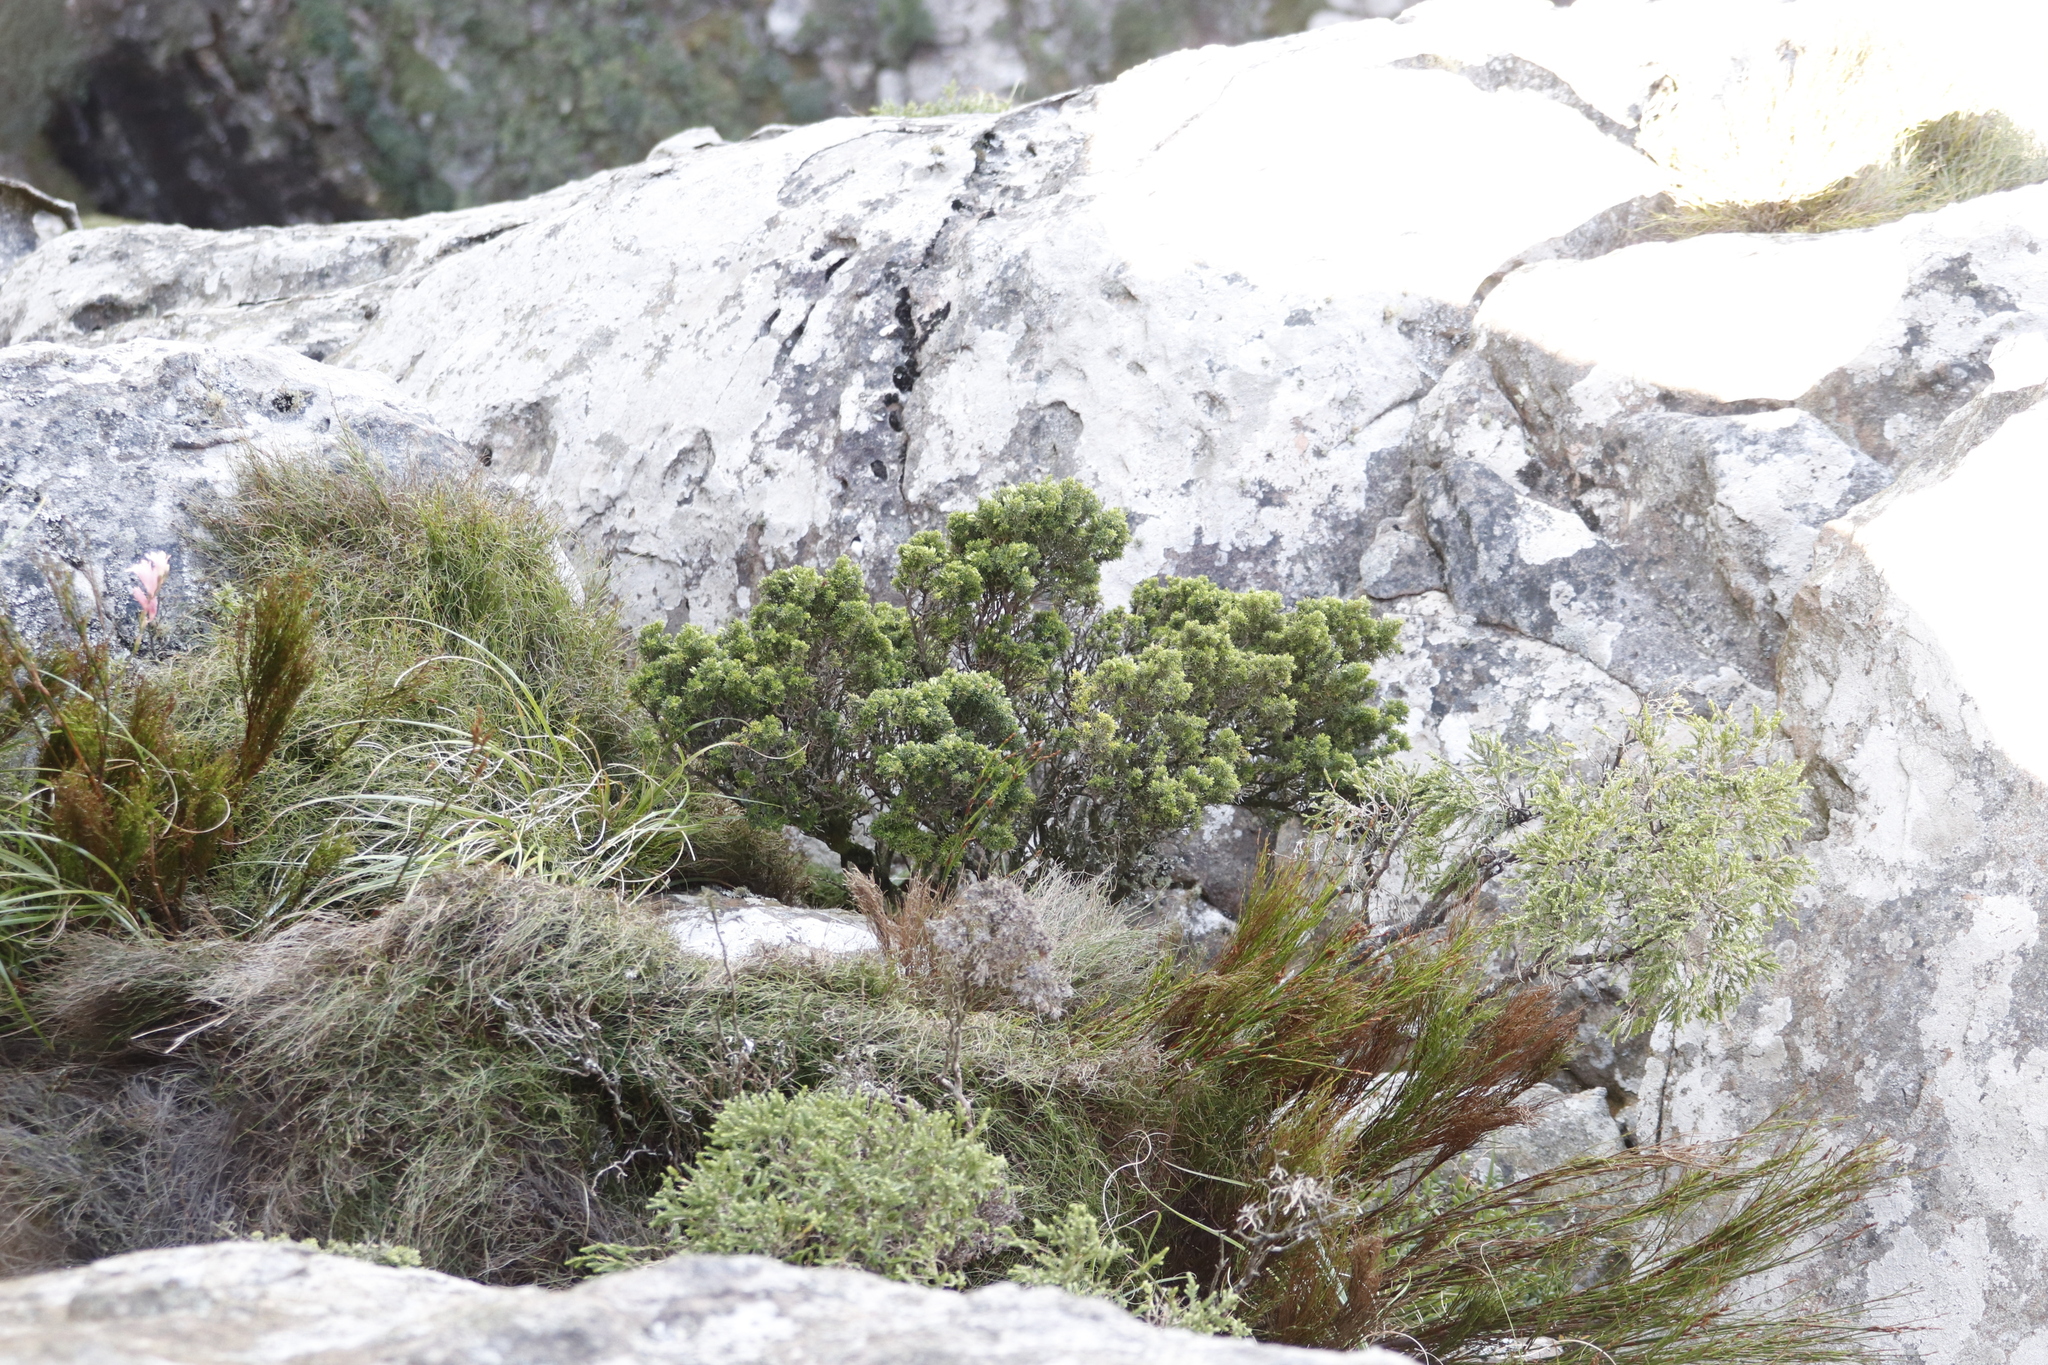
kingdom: Plantae
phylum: Tracheophyta
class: Magnoliopsida
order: Ericales
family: Ericaceae
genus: Erica
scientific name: Erica coccinea
